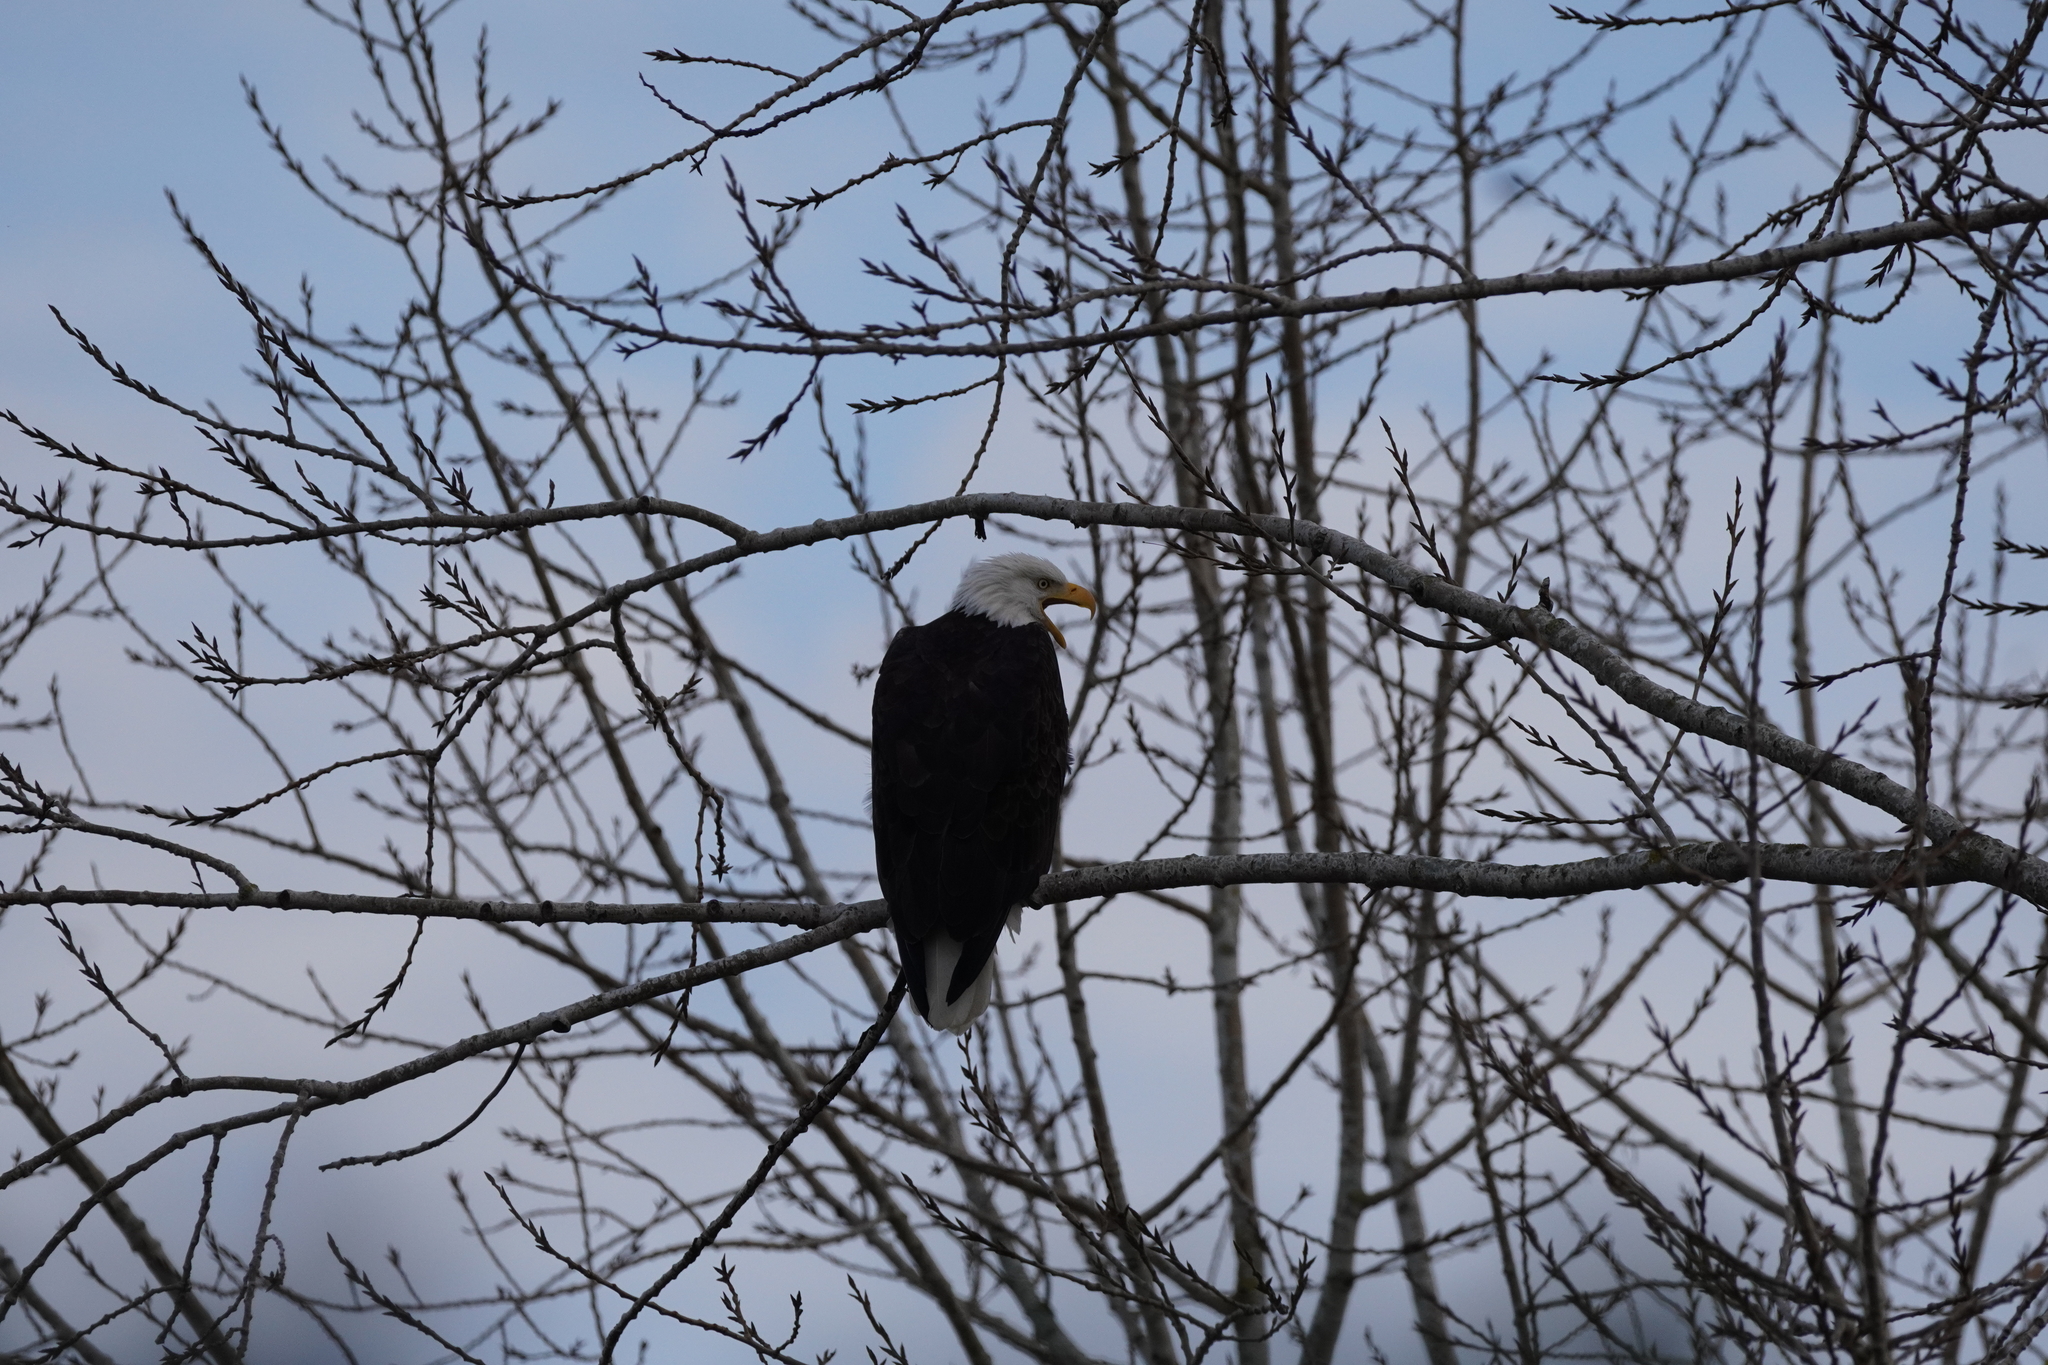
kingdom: Animalia
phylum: Chordata
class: Aves
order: Accipitriformes
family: Accipitridae
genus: Haliaeetus
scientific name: Haliaeetus leucocephalus
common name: Bald eagle
